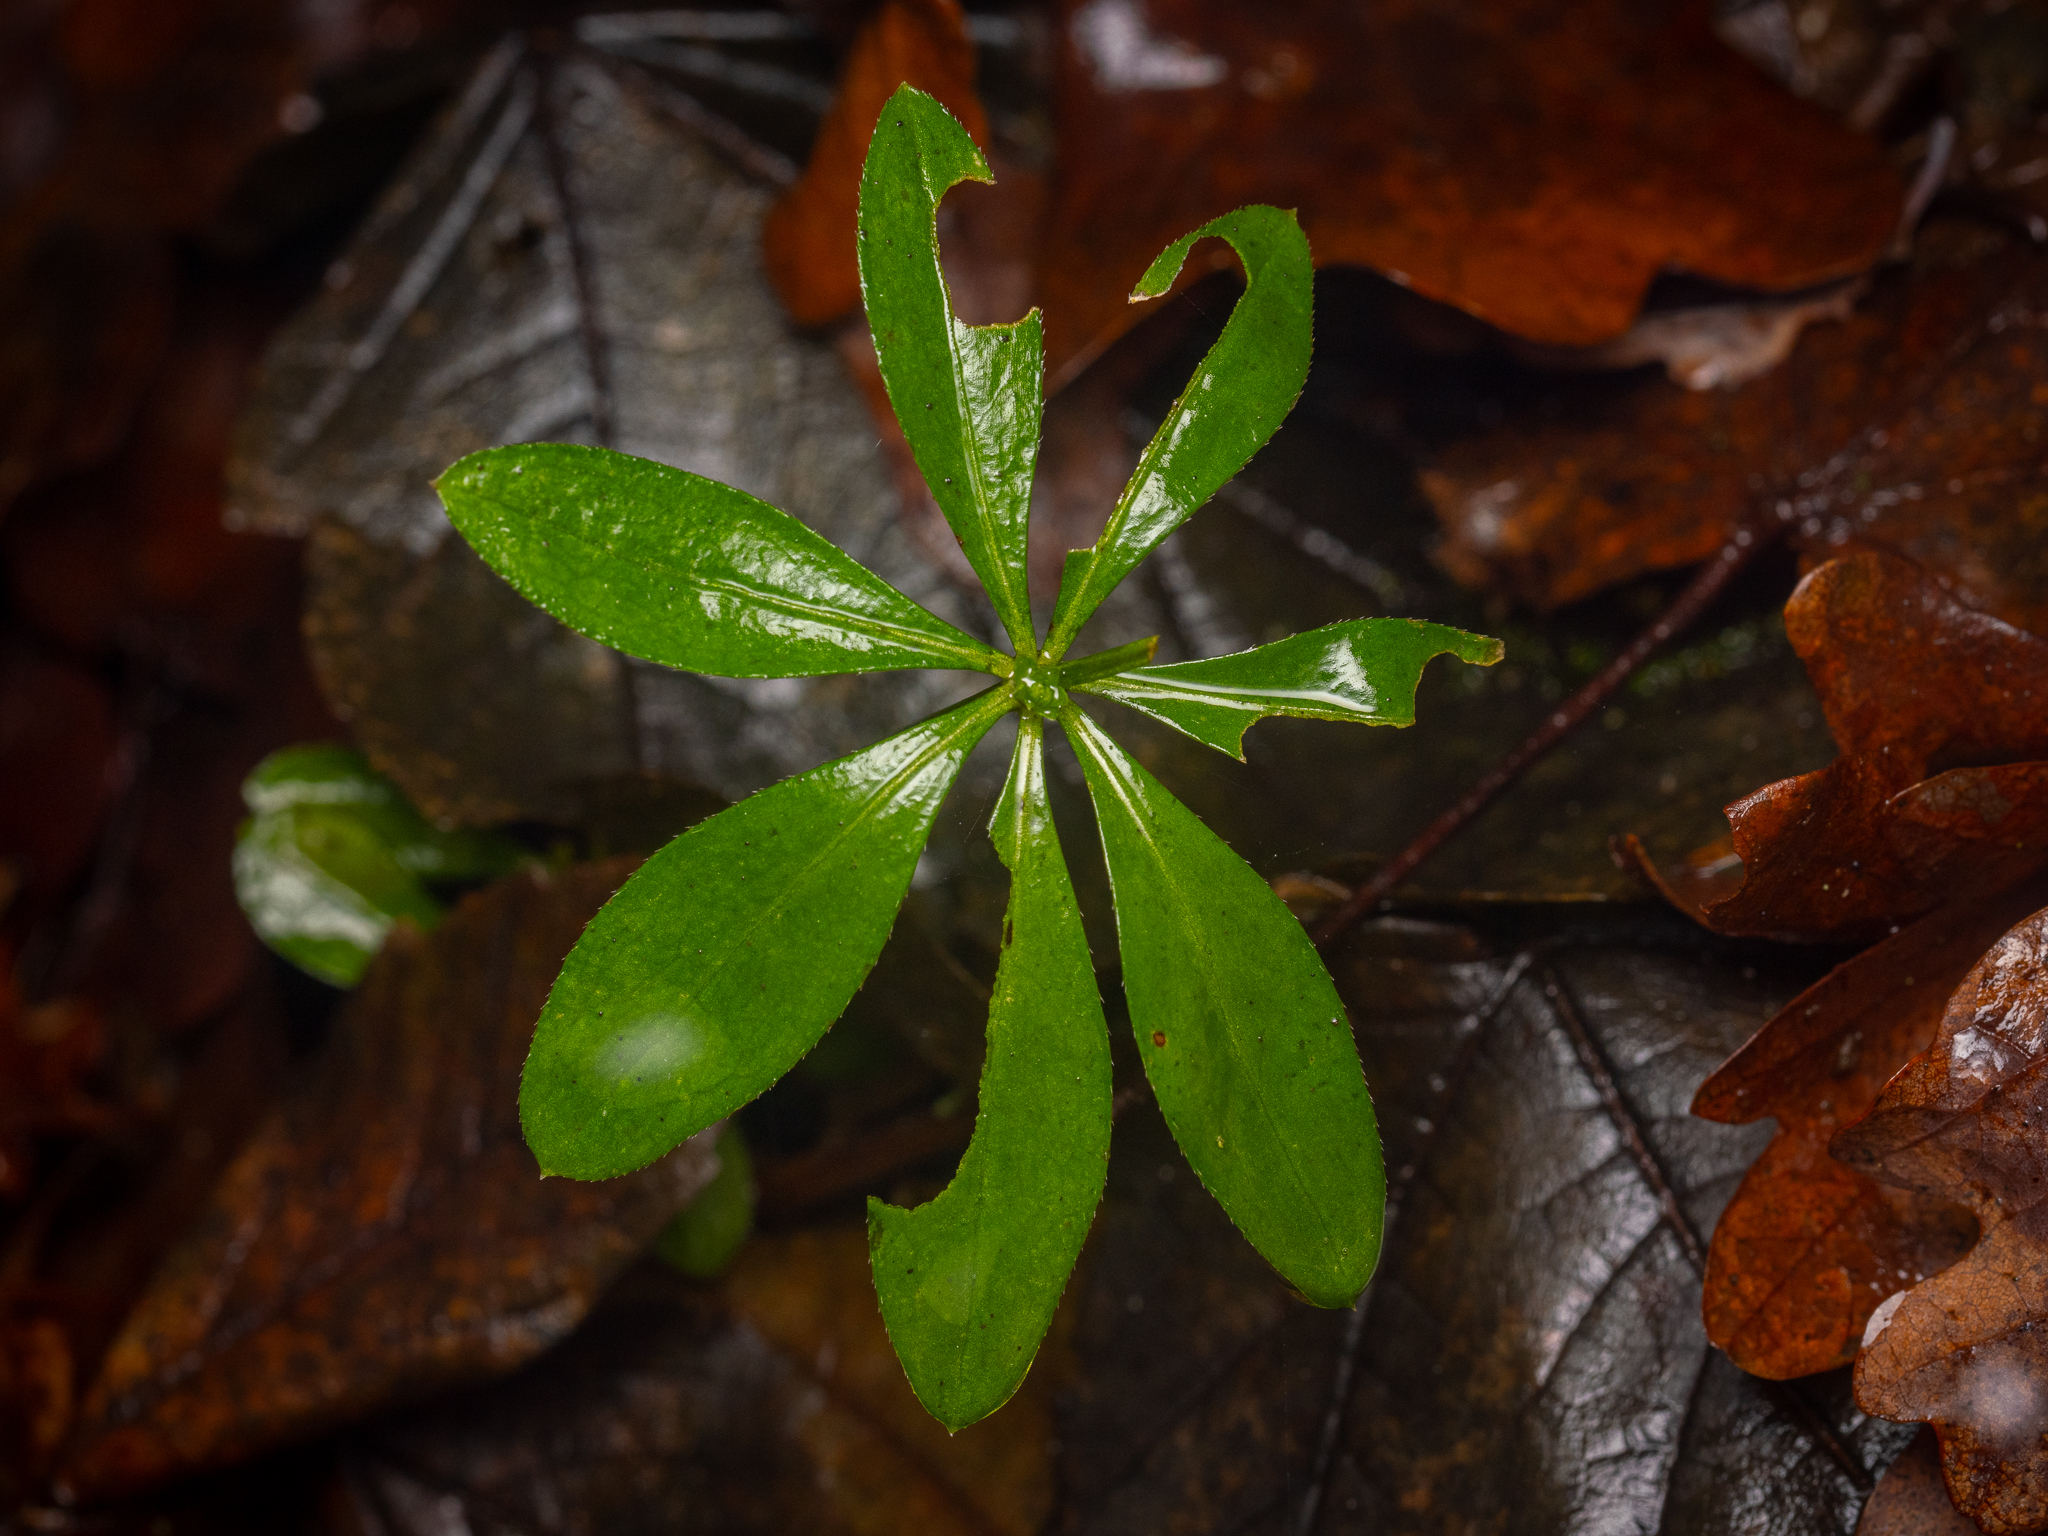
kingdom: Plantae
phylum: Tracheophyta
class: Magnoliopsida
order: Gentianales
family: Rubiaceae
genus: Galium
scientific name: Galium odoratum
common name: Sweet woodruff
